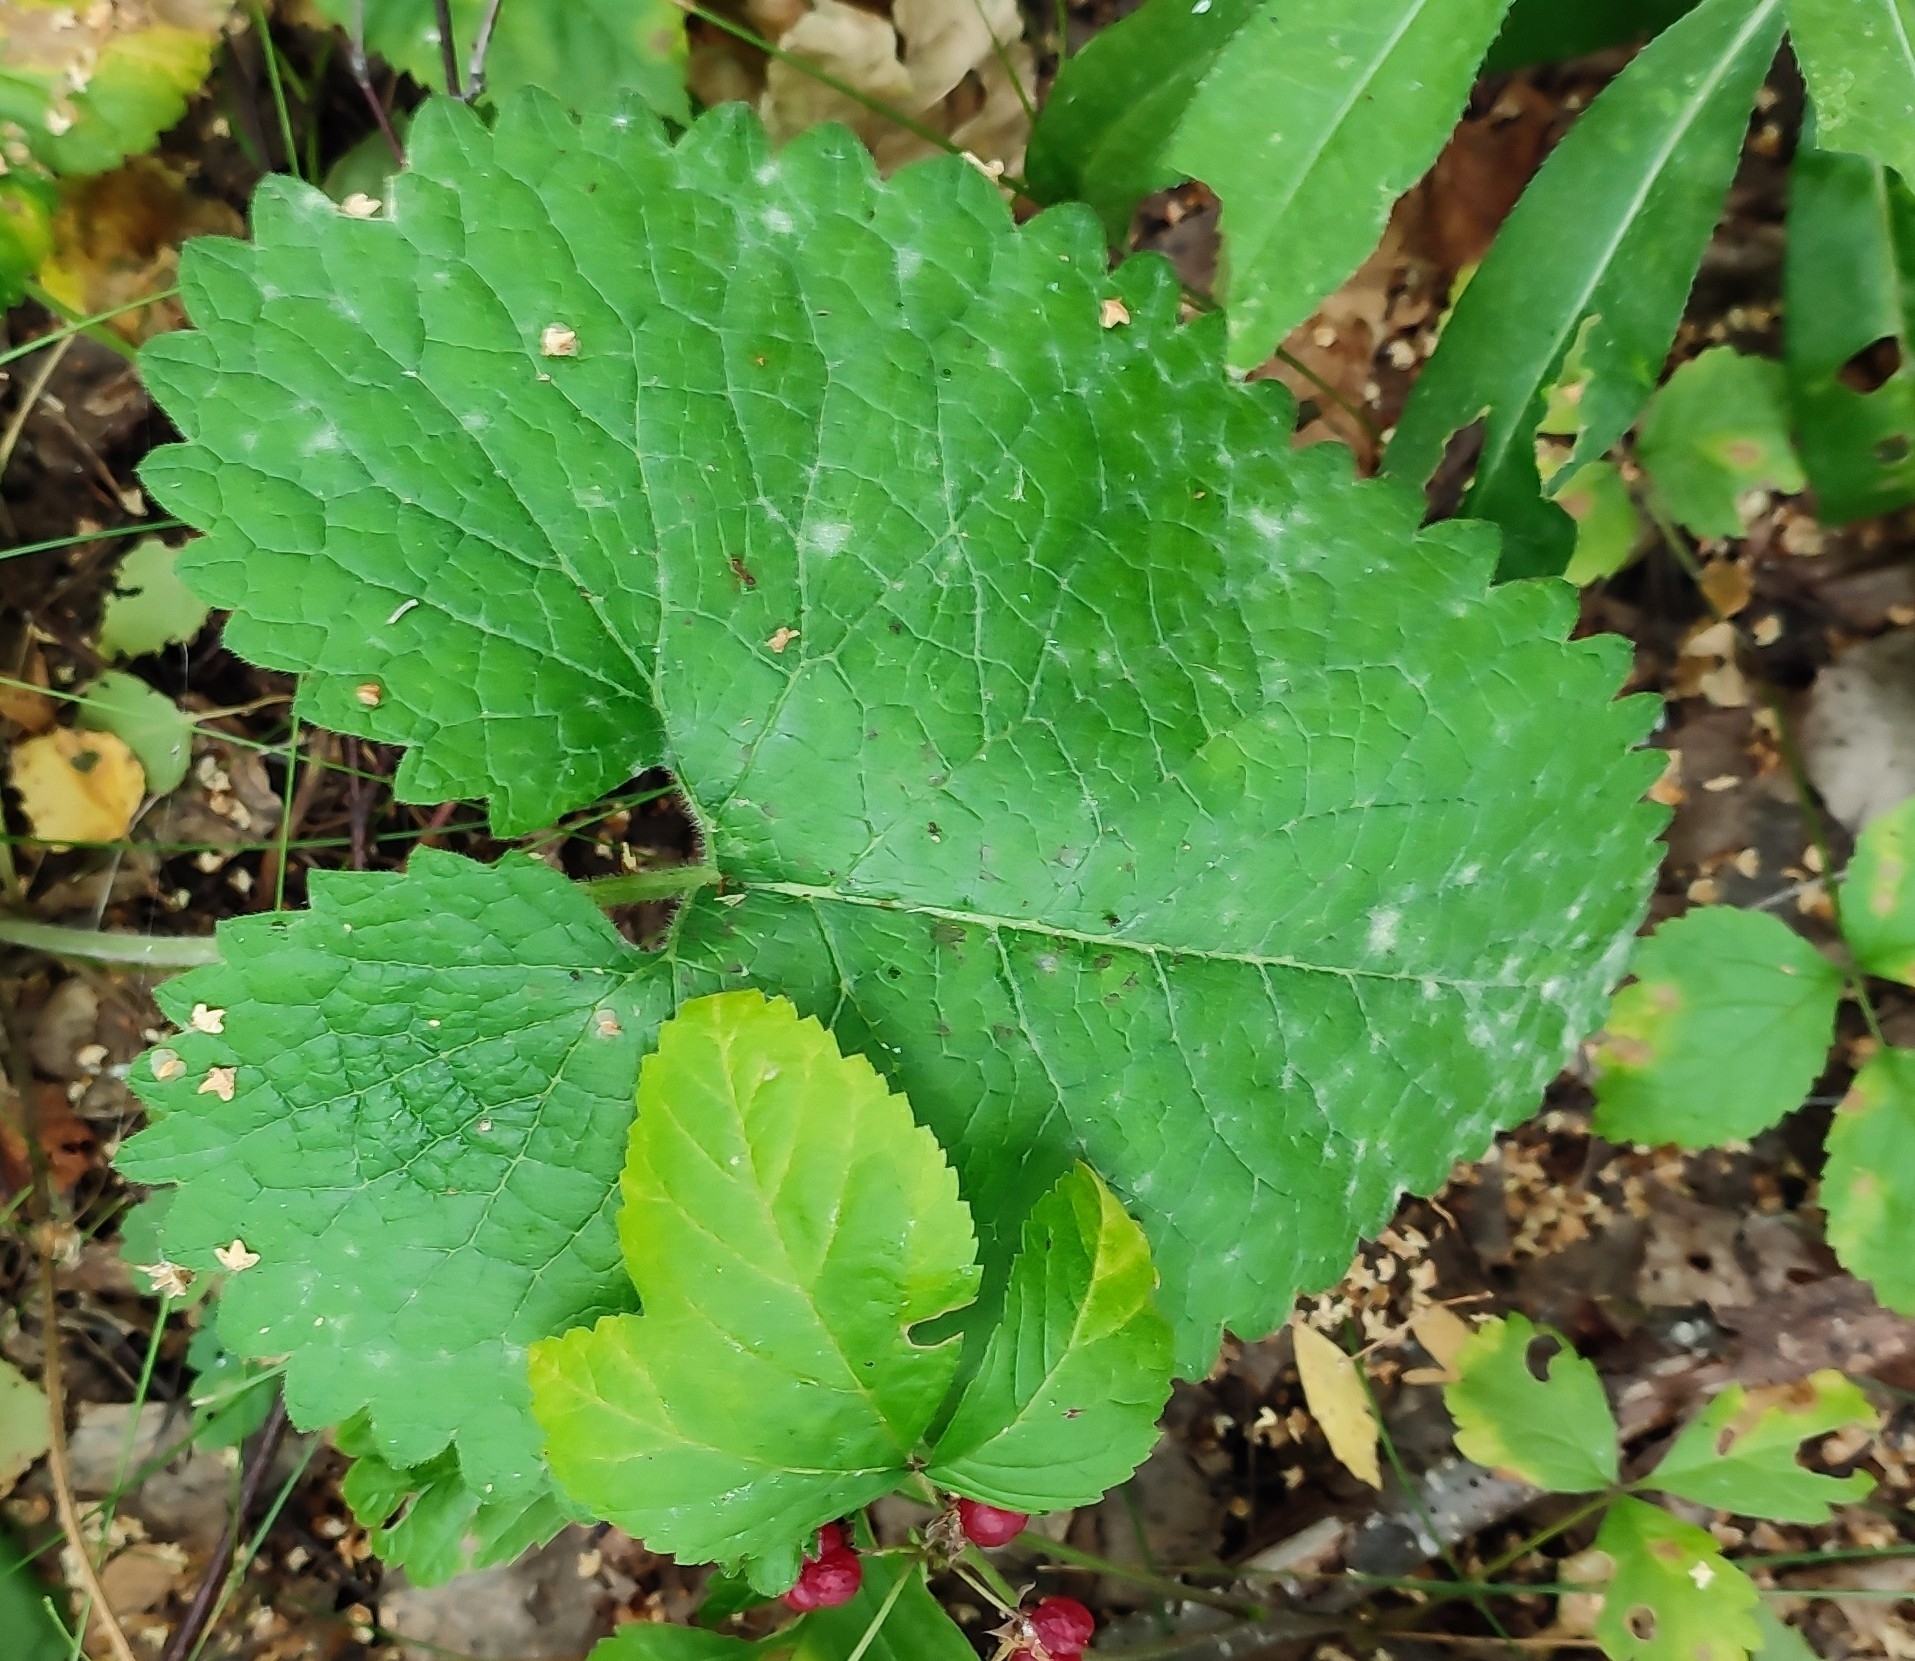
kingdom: Plantae
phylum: Tracheophyta
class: Magnoliopsida
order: Lamiales
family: Lamiaceae
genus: Phlomoides
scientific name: Phlomoides tuberosa
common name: Tuberous jerusalem sage
